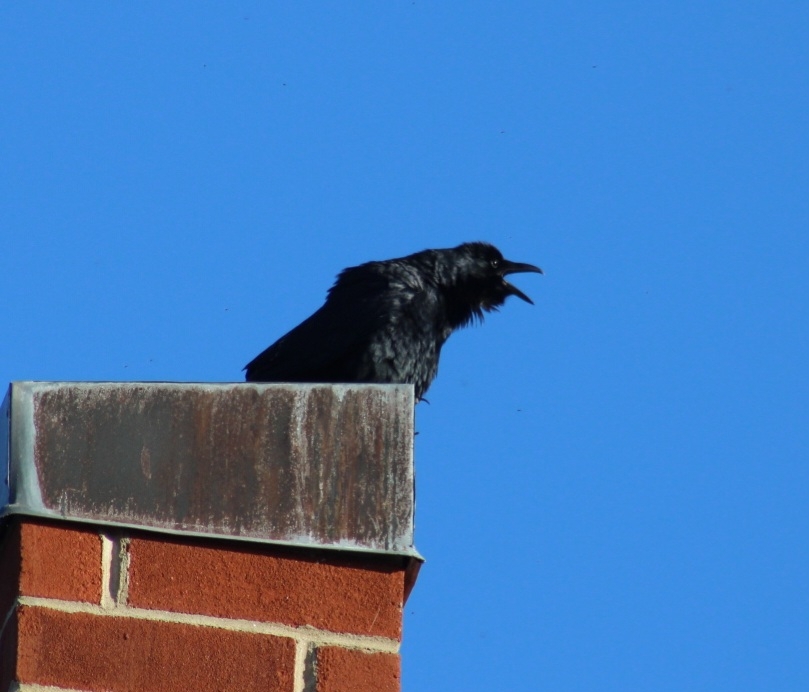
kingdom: Animalia
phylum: Chordata
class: Aves
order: Passeriformes
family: Corvidae
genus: Corvus
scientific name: Corvus ossifragus
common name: Fish crow
